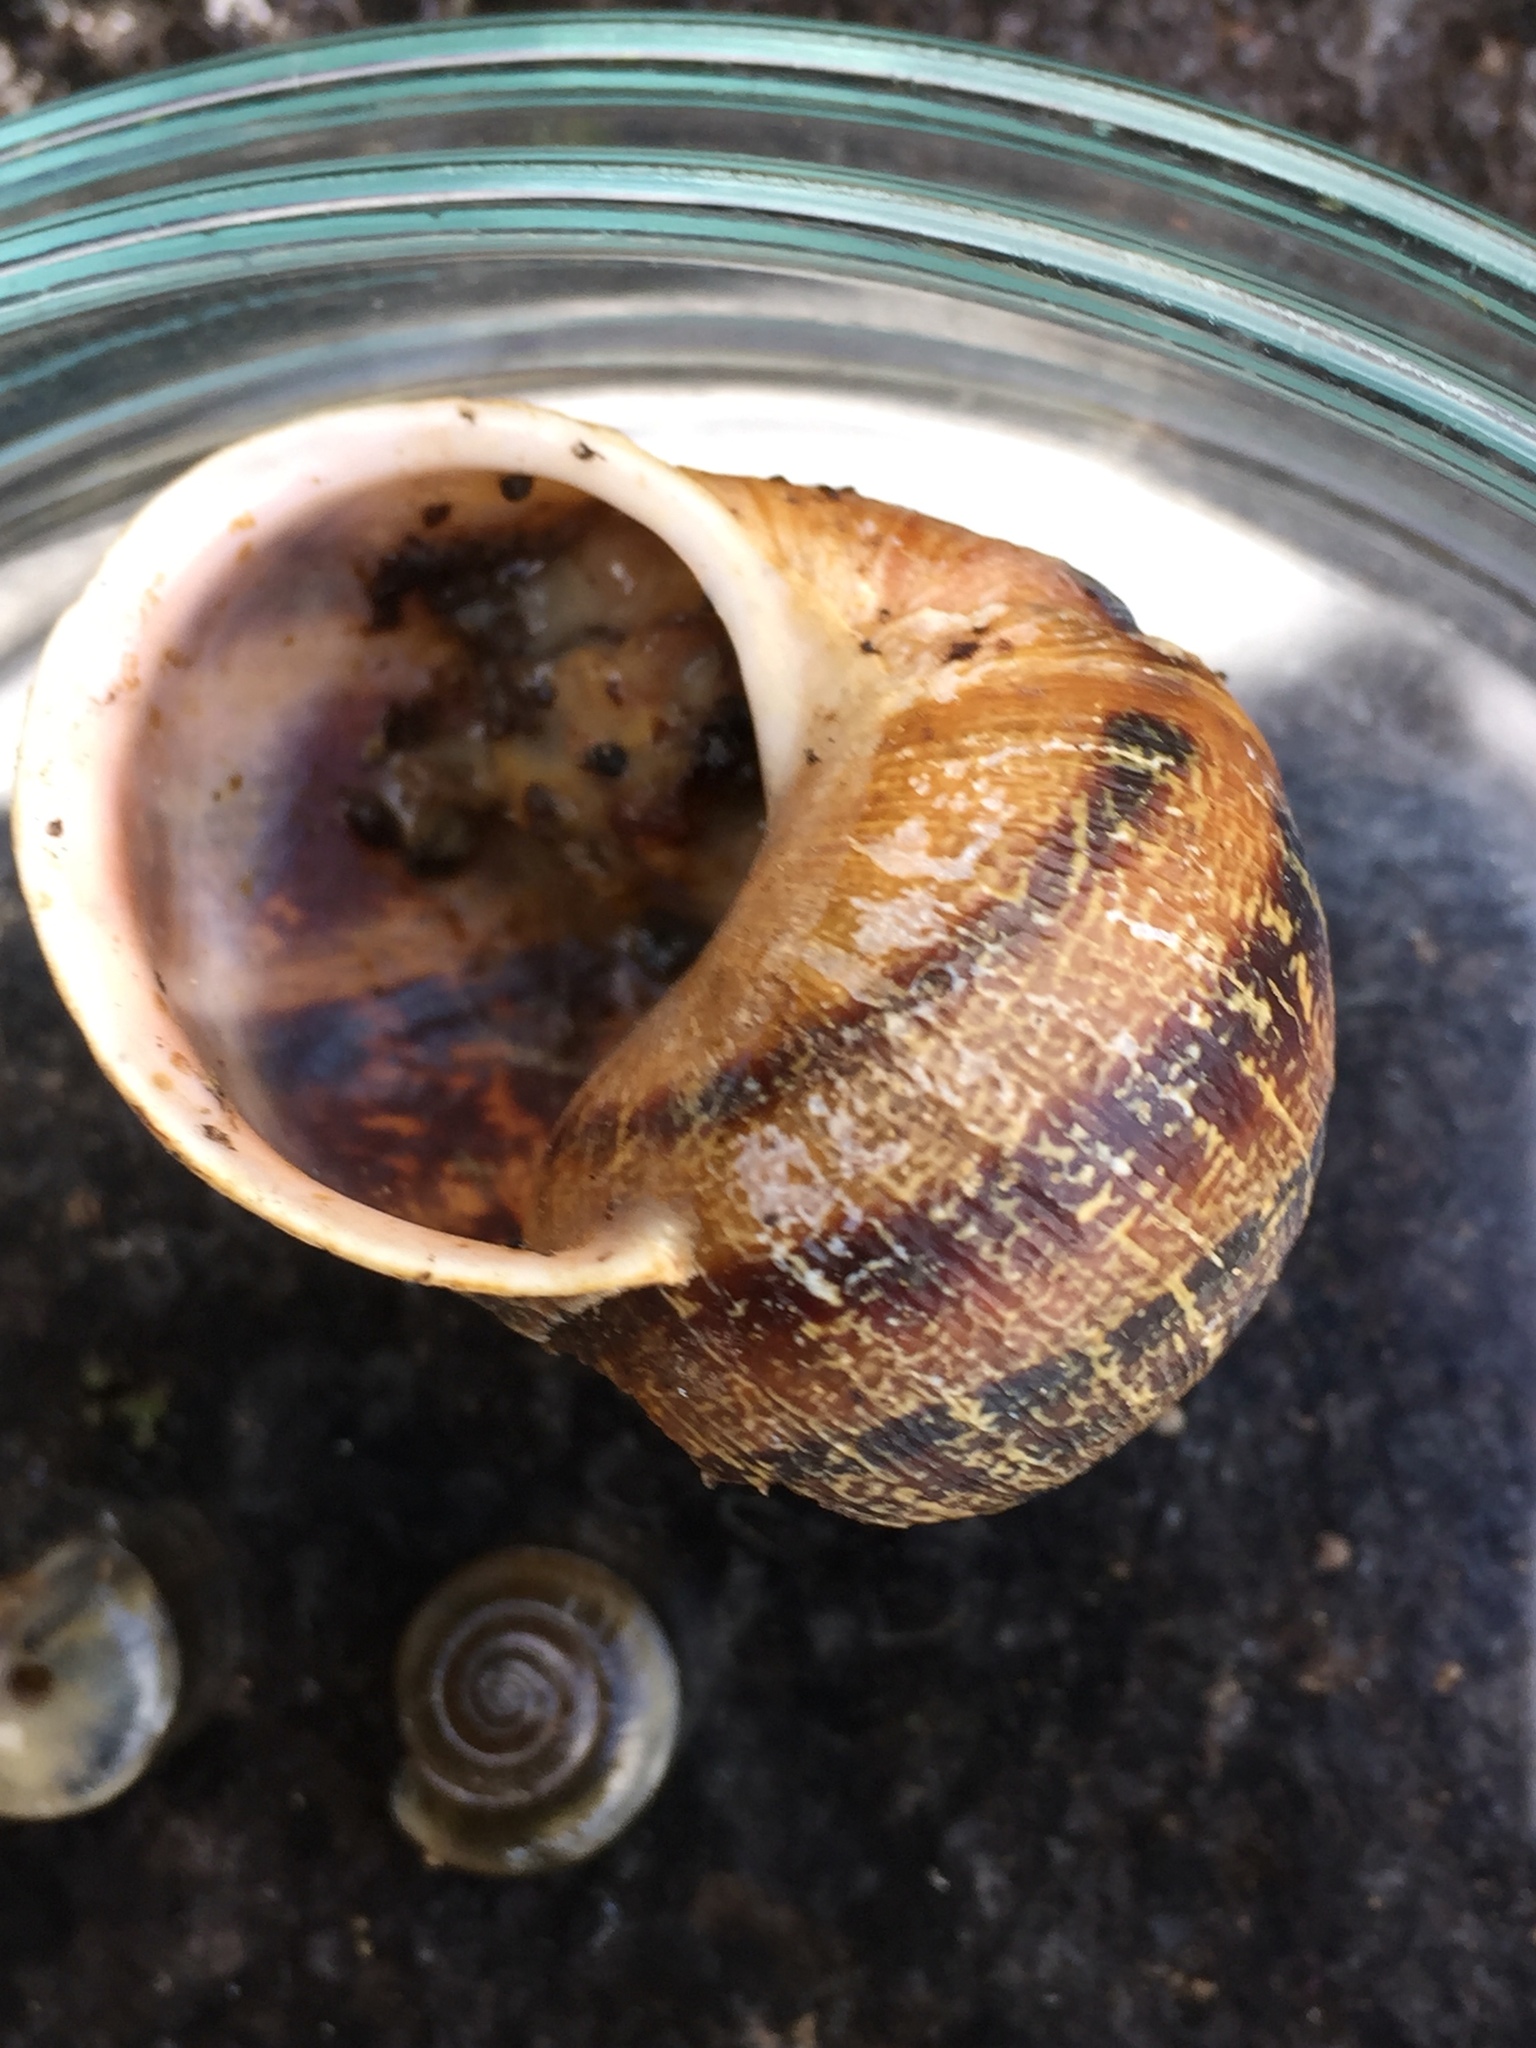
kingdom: Animalia
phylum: Mollusca
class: Gastropoda
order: Stylommatophora
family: Helicidae
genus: Cornu
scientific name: Cornu aspersum
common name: Brown garden snail
